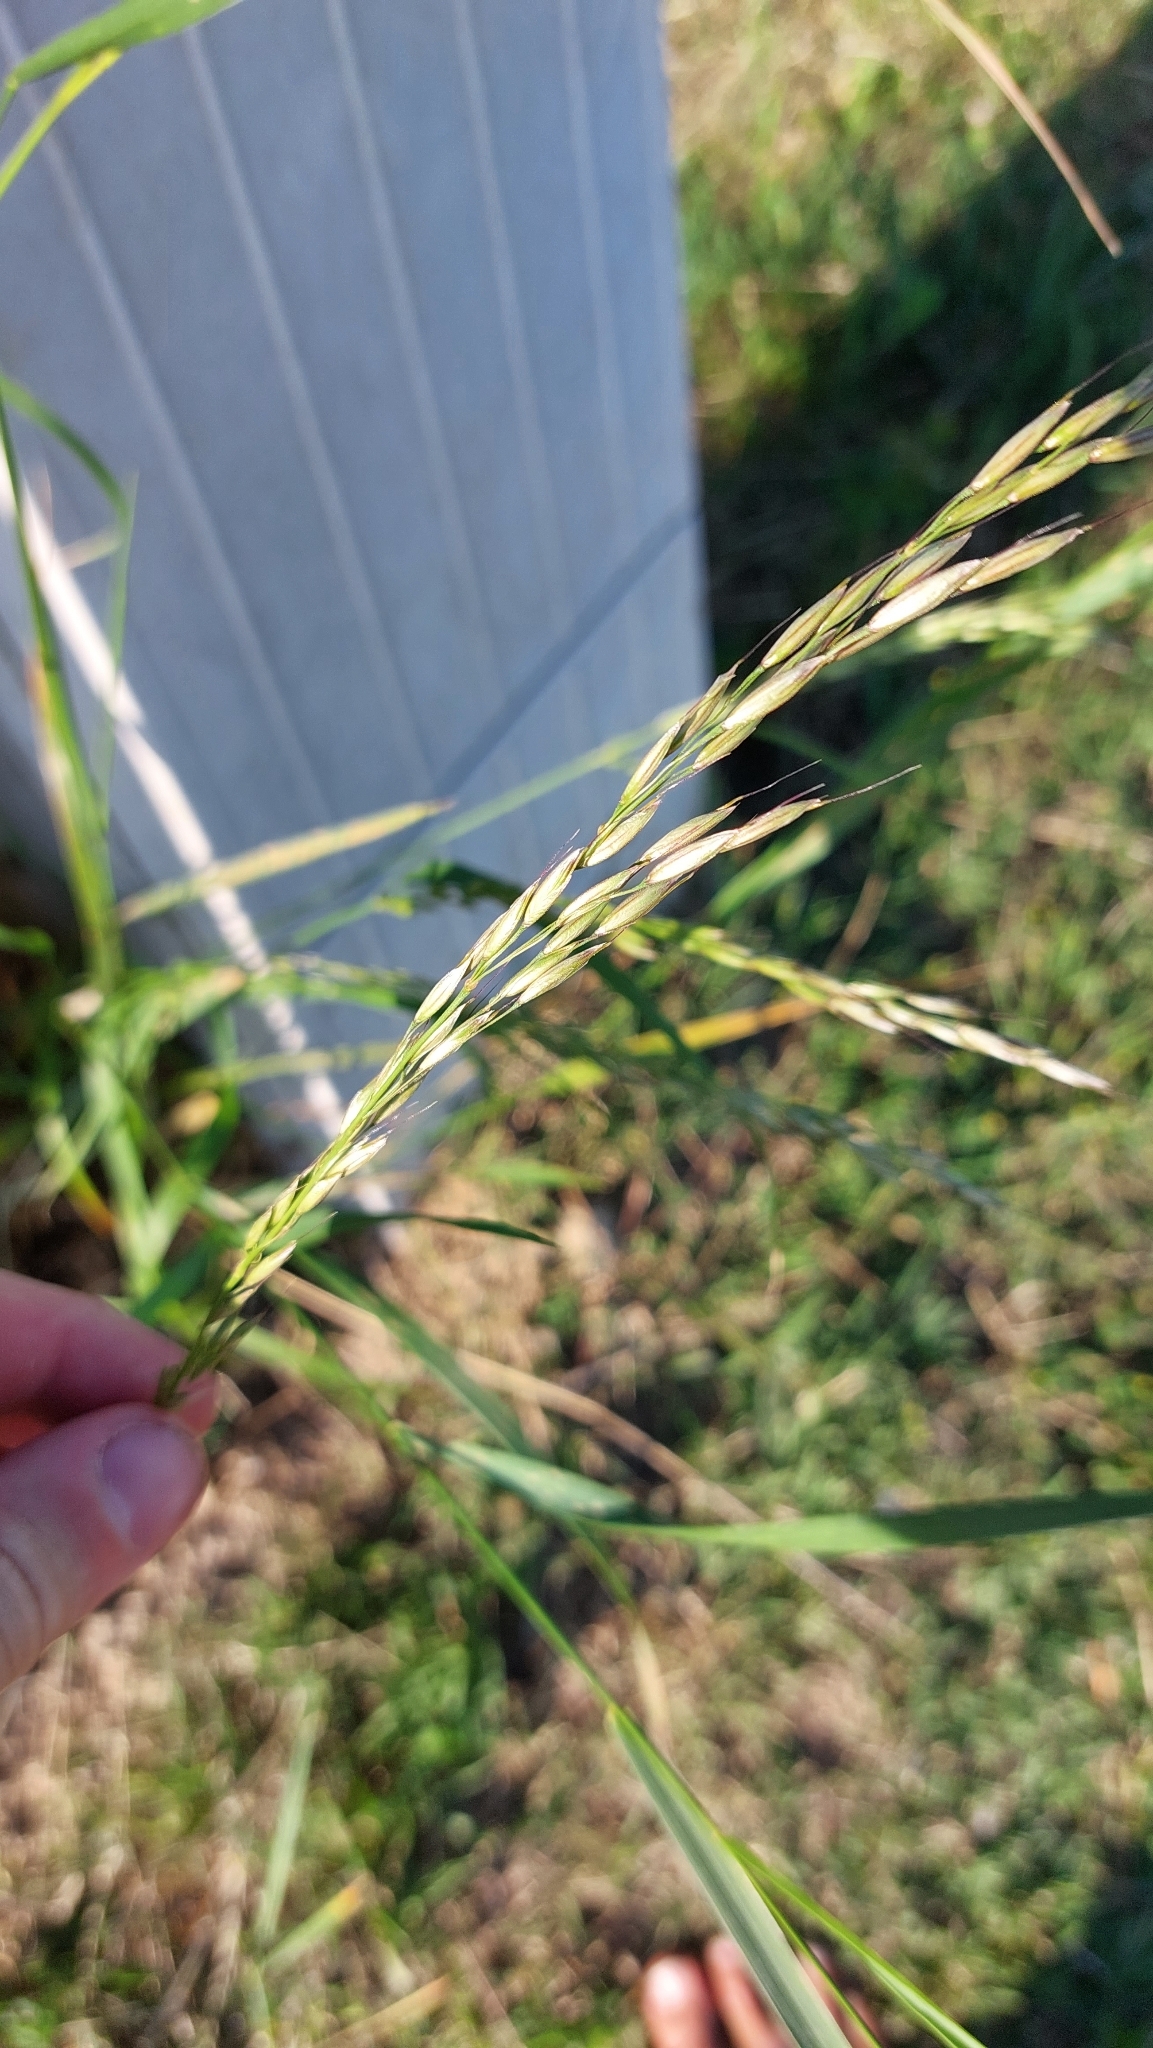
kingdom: Plantae
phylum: Tracheophyta
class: Liliopsida
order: Poales
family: Poaceae
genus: Arrhenatherum
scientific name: Arrhenatherum elatius
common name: Tall oatgrass
